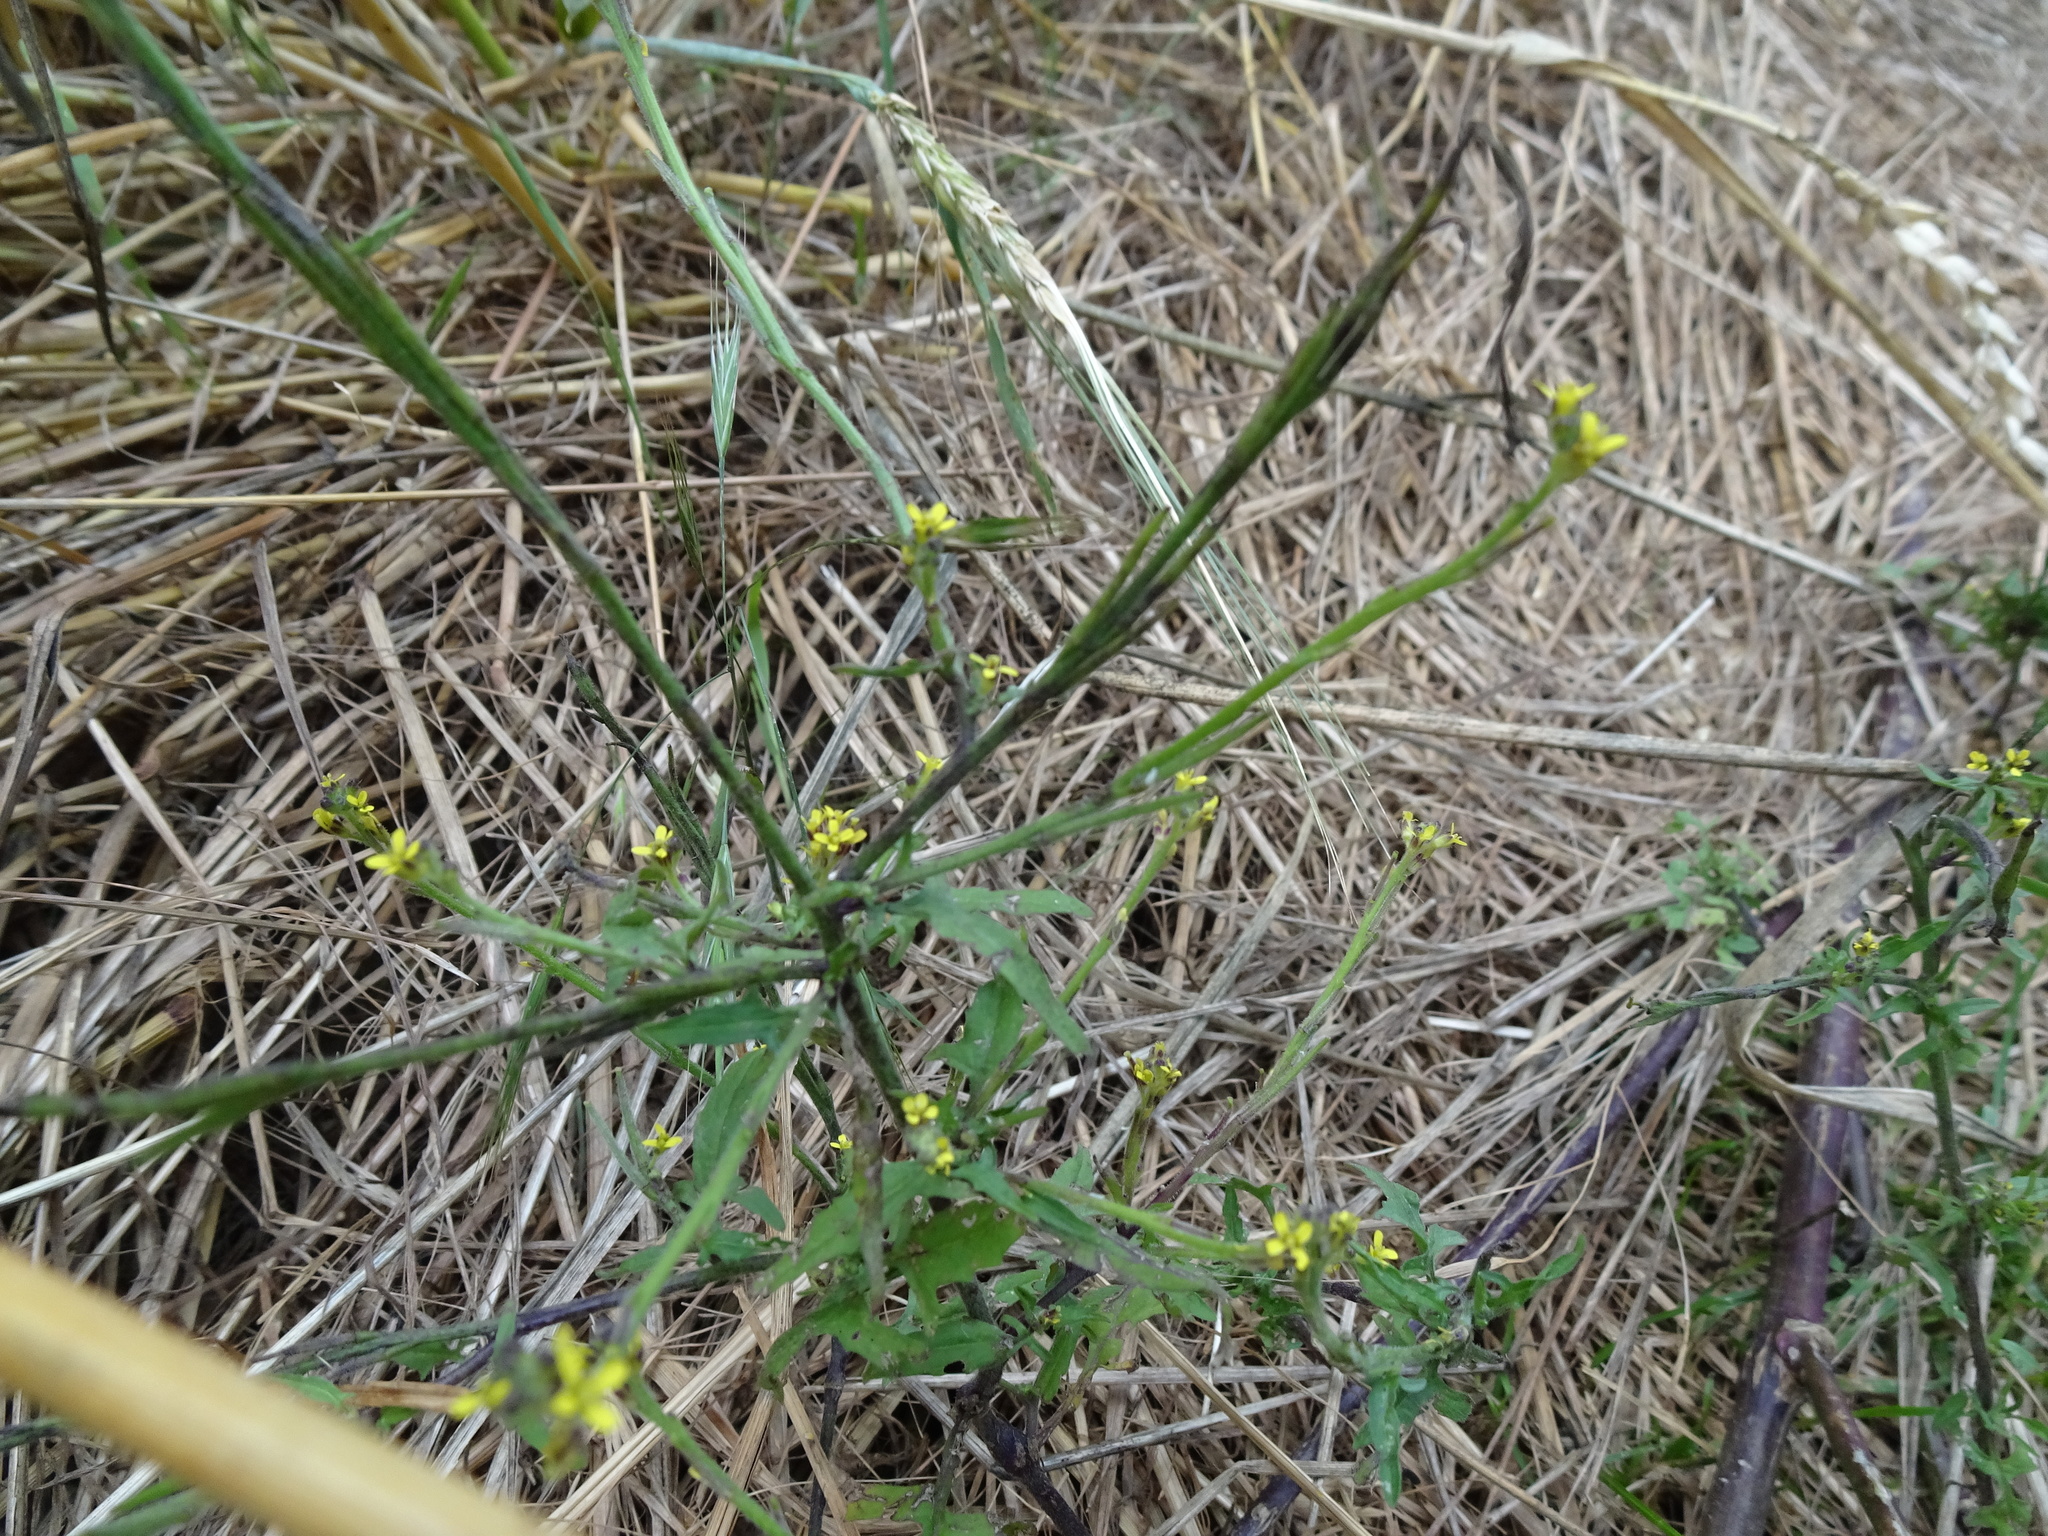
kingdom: Plantae
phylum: Tracheophyta
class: Magnoliopsida
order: Brassicales
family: Brassicaceae
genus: Sisymbrium
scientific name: Sisymbrium officinale
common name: Hedge mustard
